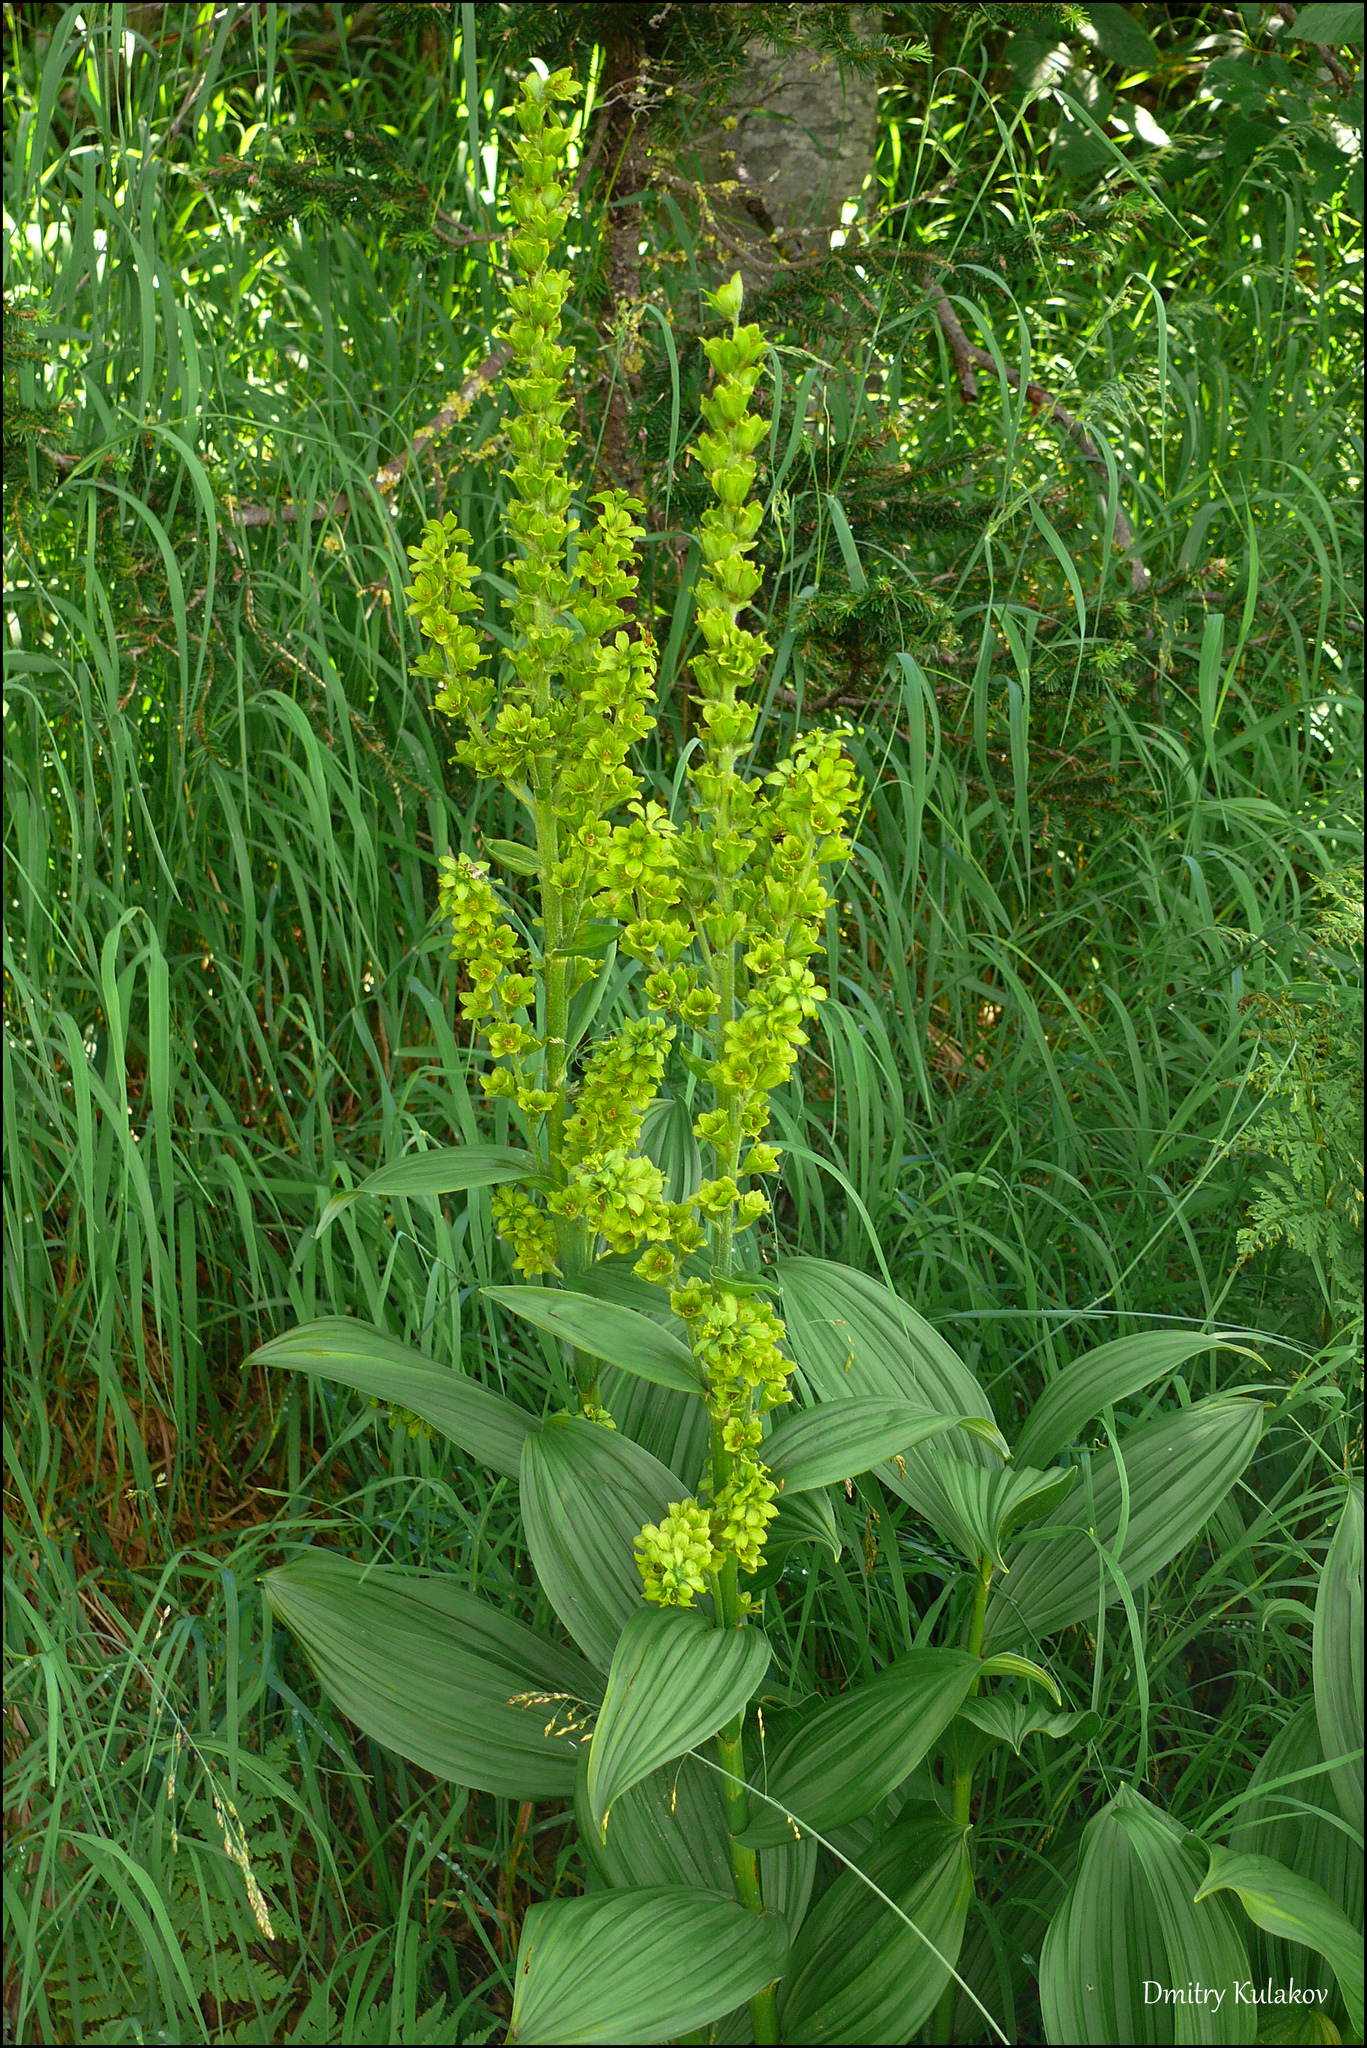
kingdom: Plantae
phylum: Tracheophyta
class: Liliopsida
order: Liliales
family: Melanthiaceae
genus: Veratrum
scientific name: Veratrum lobelianum
